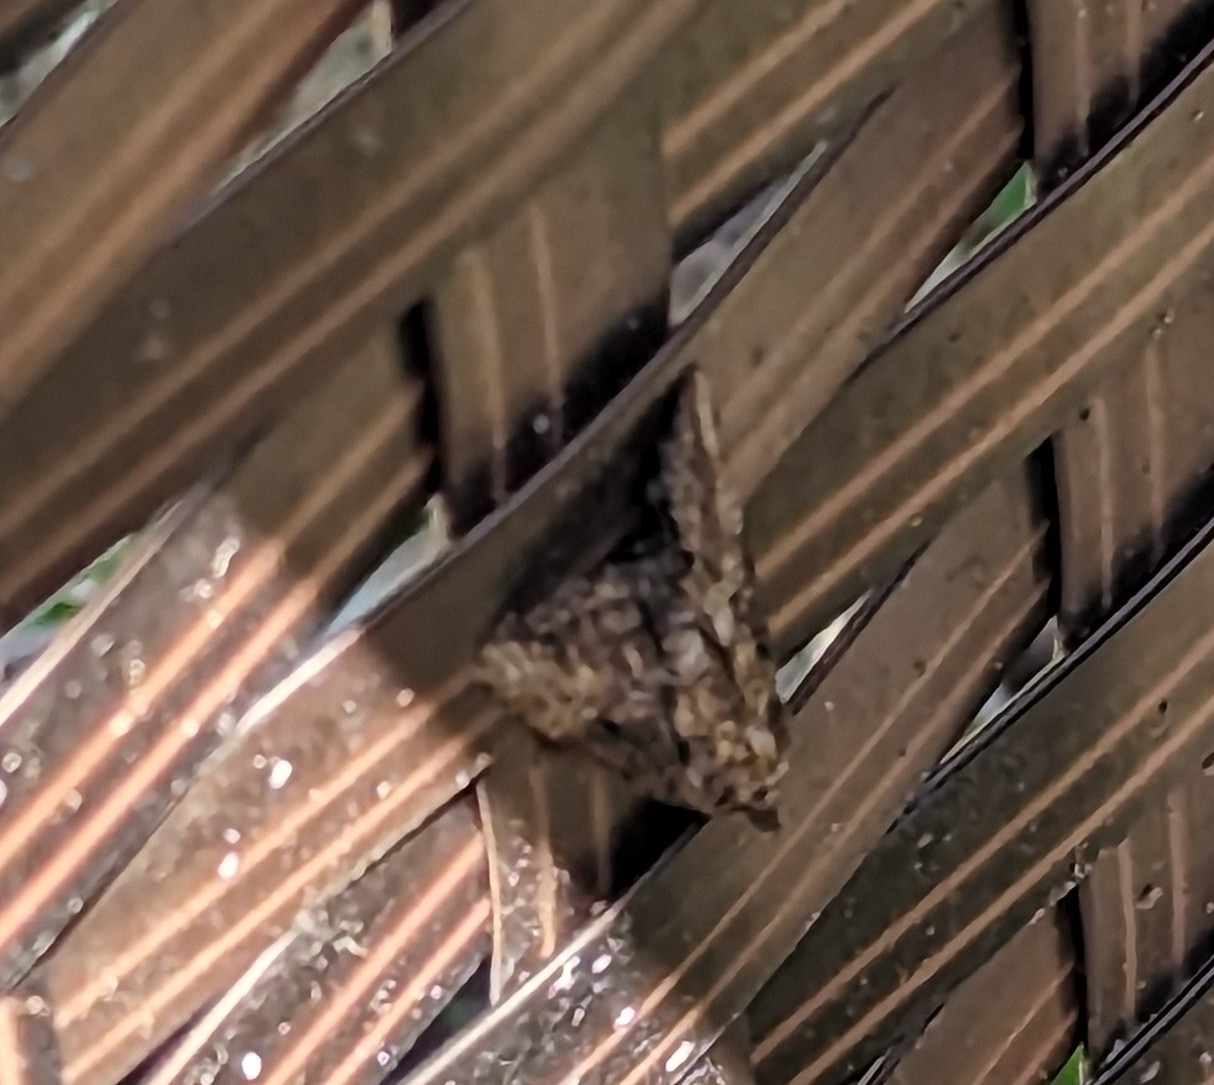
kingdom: Animalia
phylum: Arthropoda
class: Insecta
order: Lepidoptera
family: Erebidae
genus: Hypena
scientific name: Hypena scabra
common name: Green cloverworm
